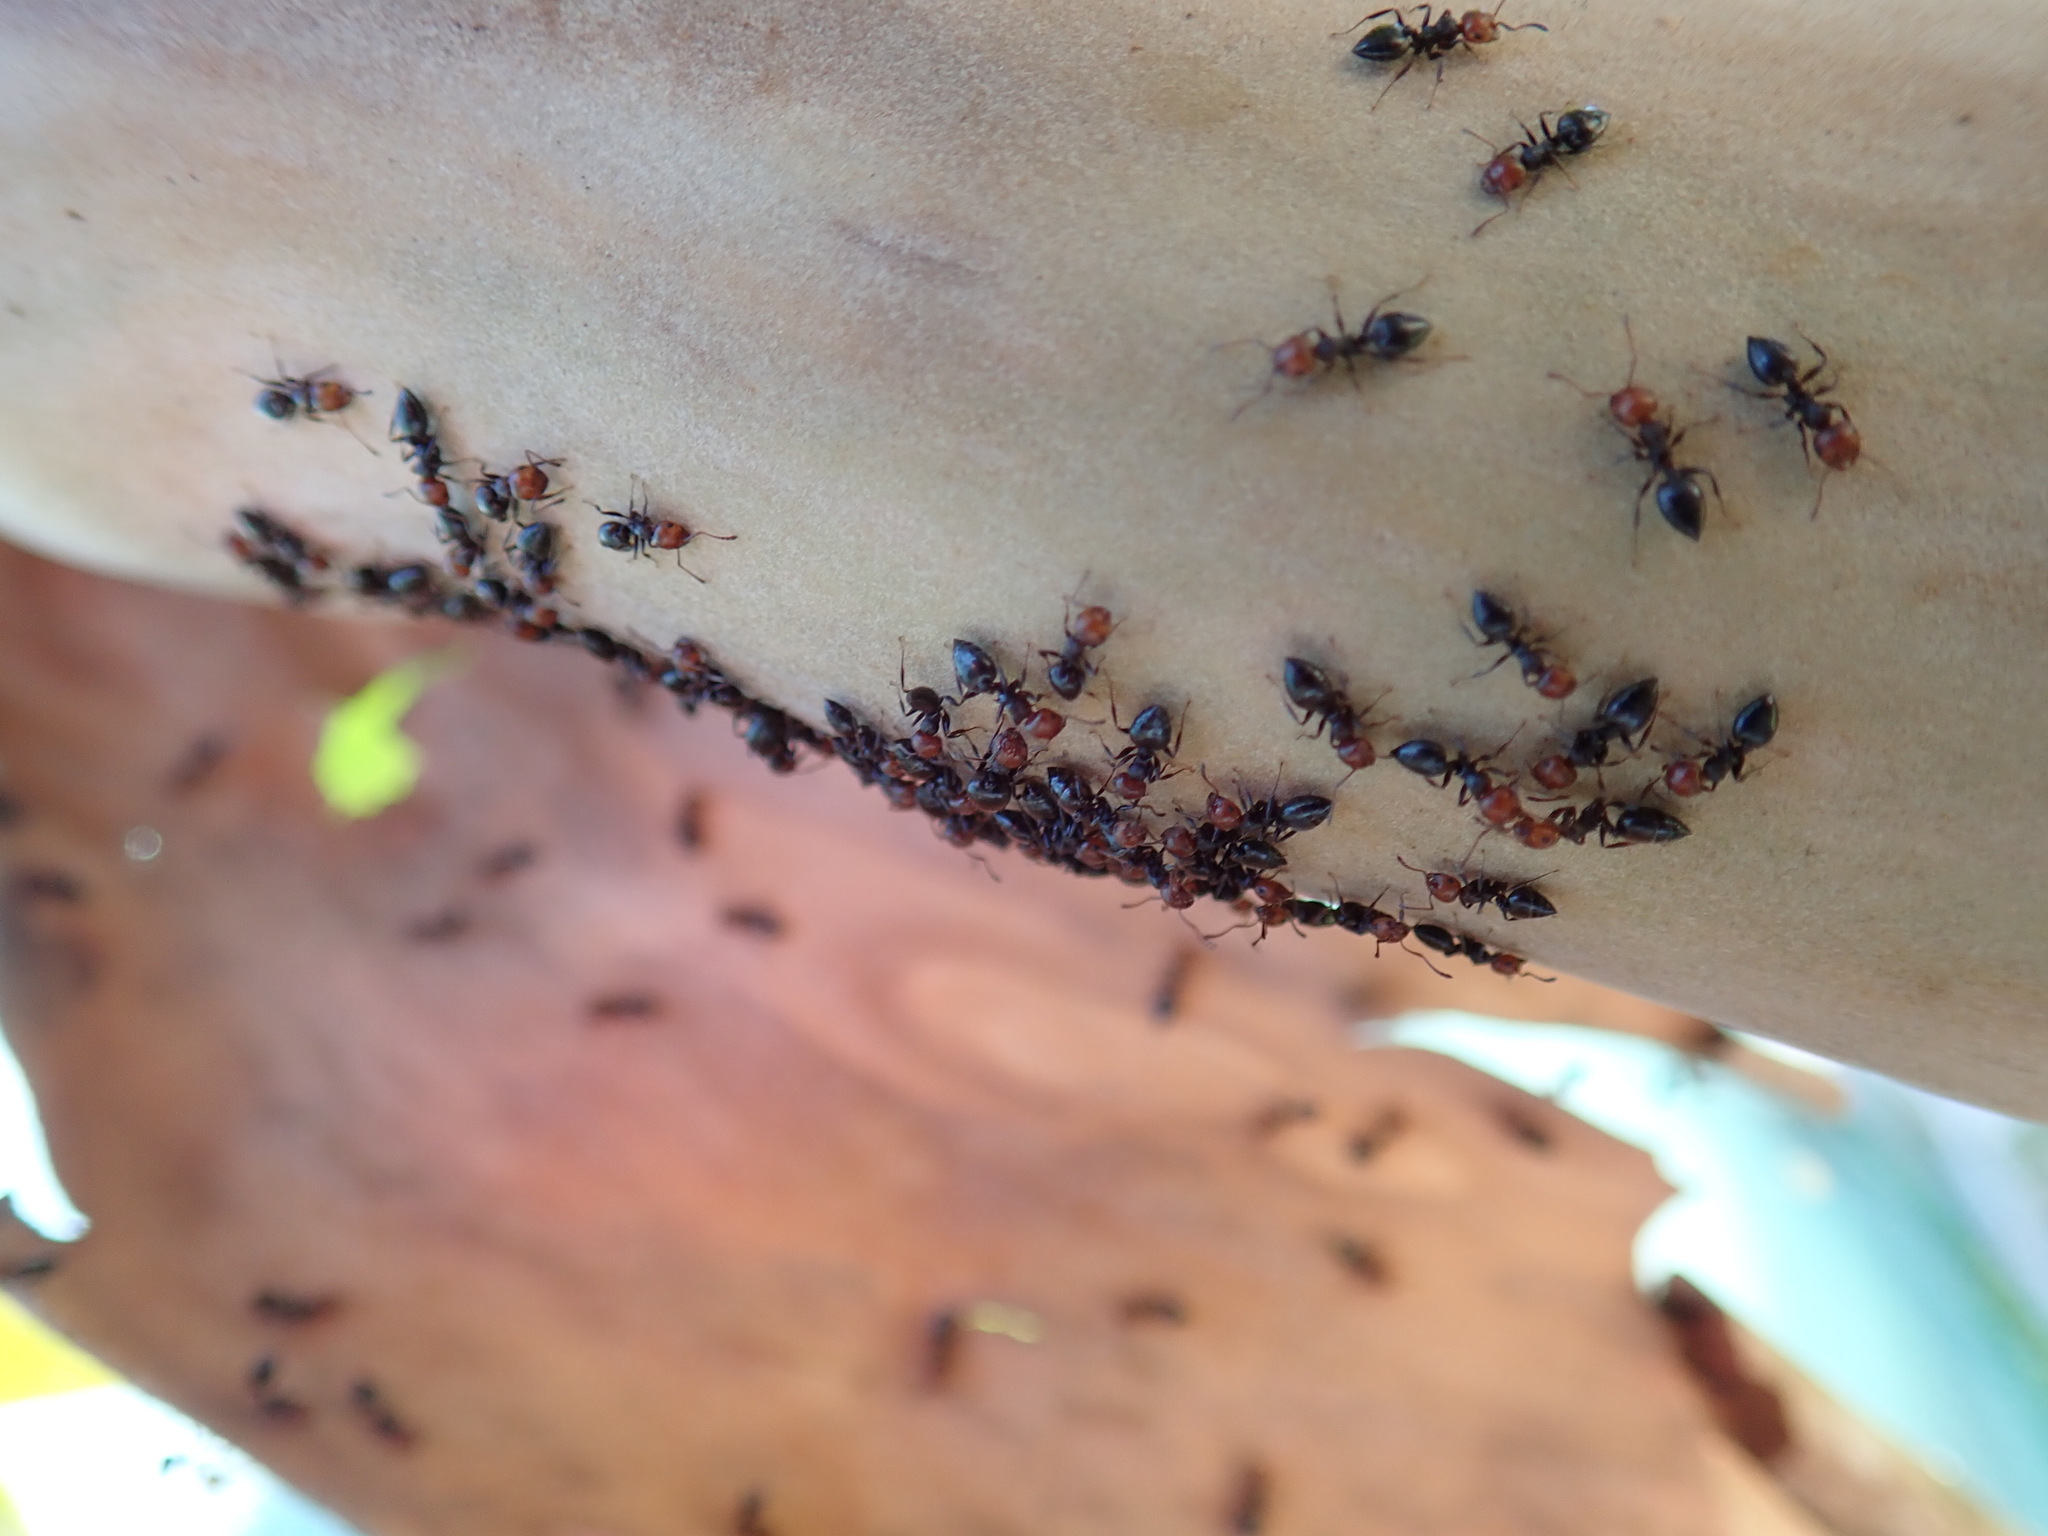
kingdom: Animalia
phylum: Arthropoda
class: Insecta
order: Hymenoptera
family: Formicidae
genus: Crematogaster
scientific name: Crematogaster scutellaris
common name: Fourmi du liège
